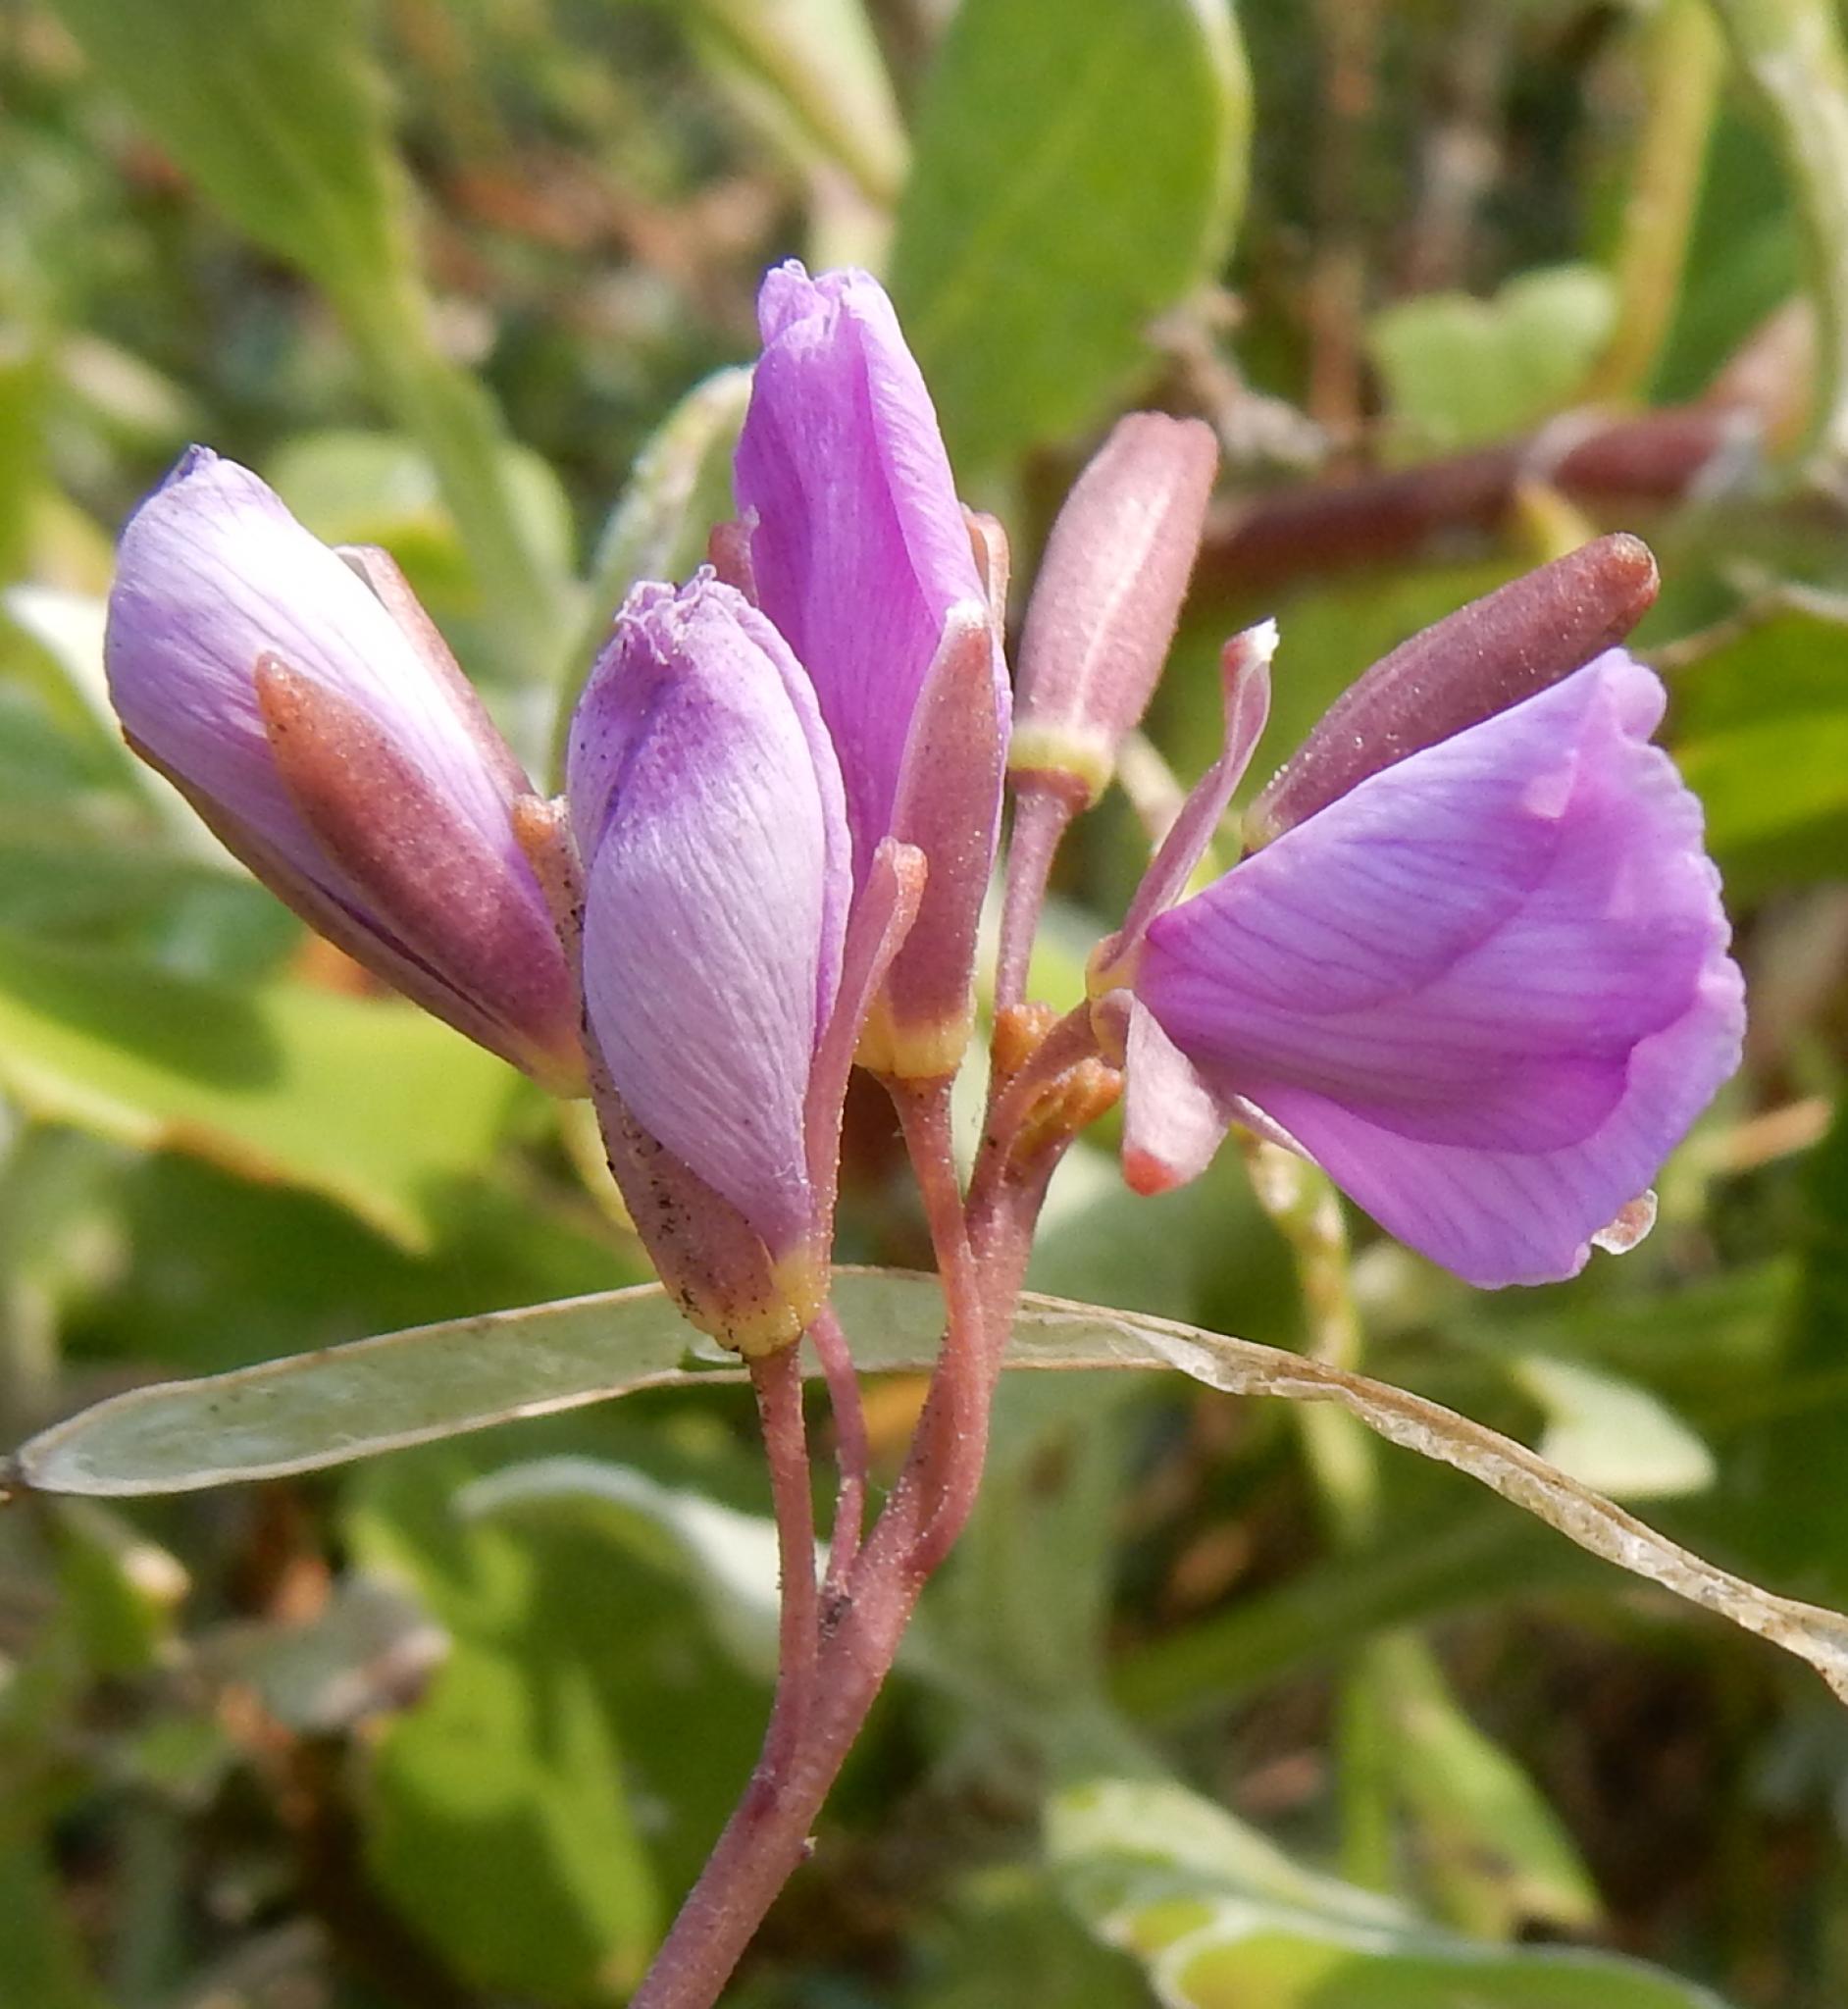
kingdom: Plantae
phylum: Tracheophyta
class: Magnoliopsida
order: Brassicales
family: Brassicaceae
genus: Heliophila
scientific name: Heliophila subulata
